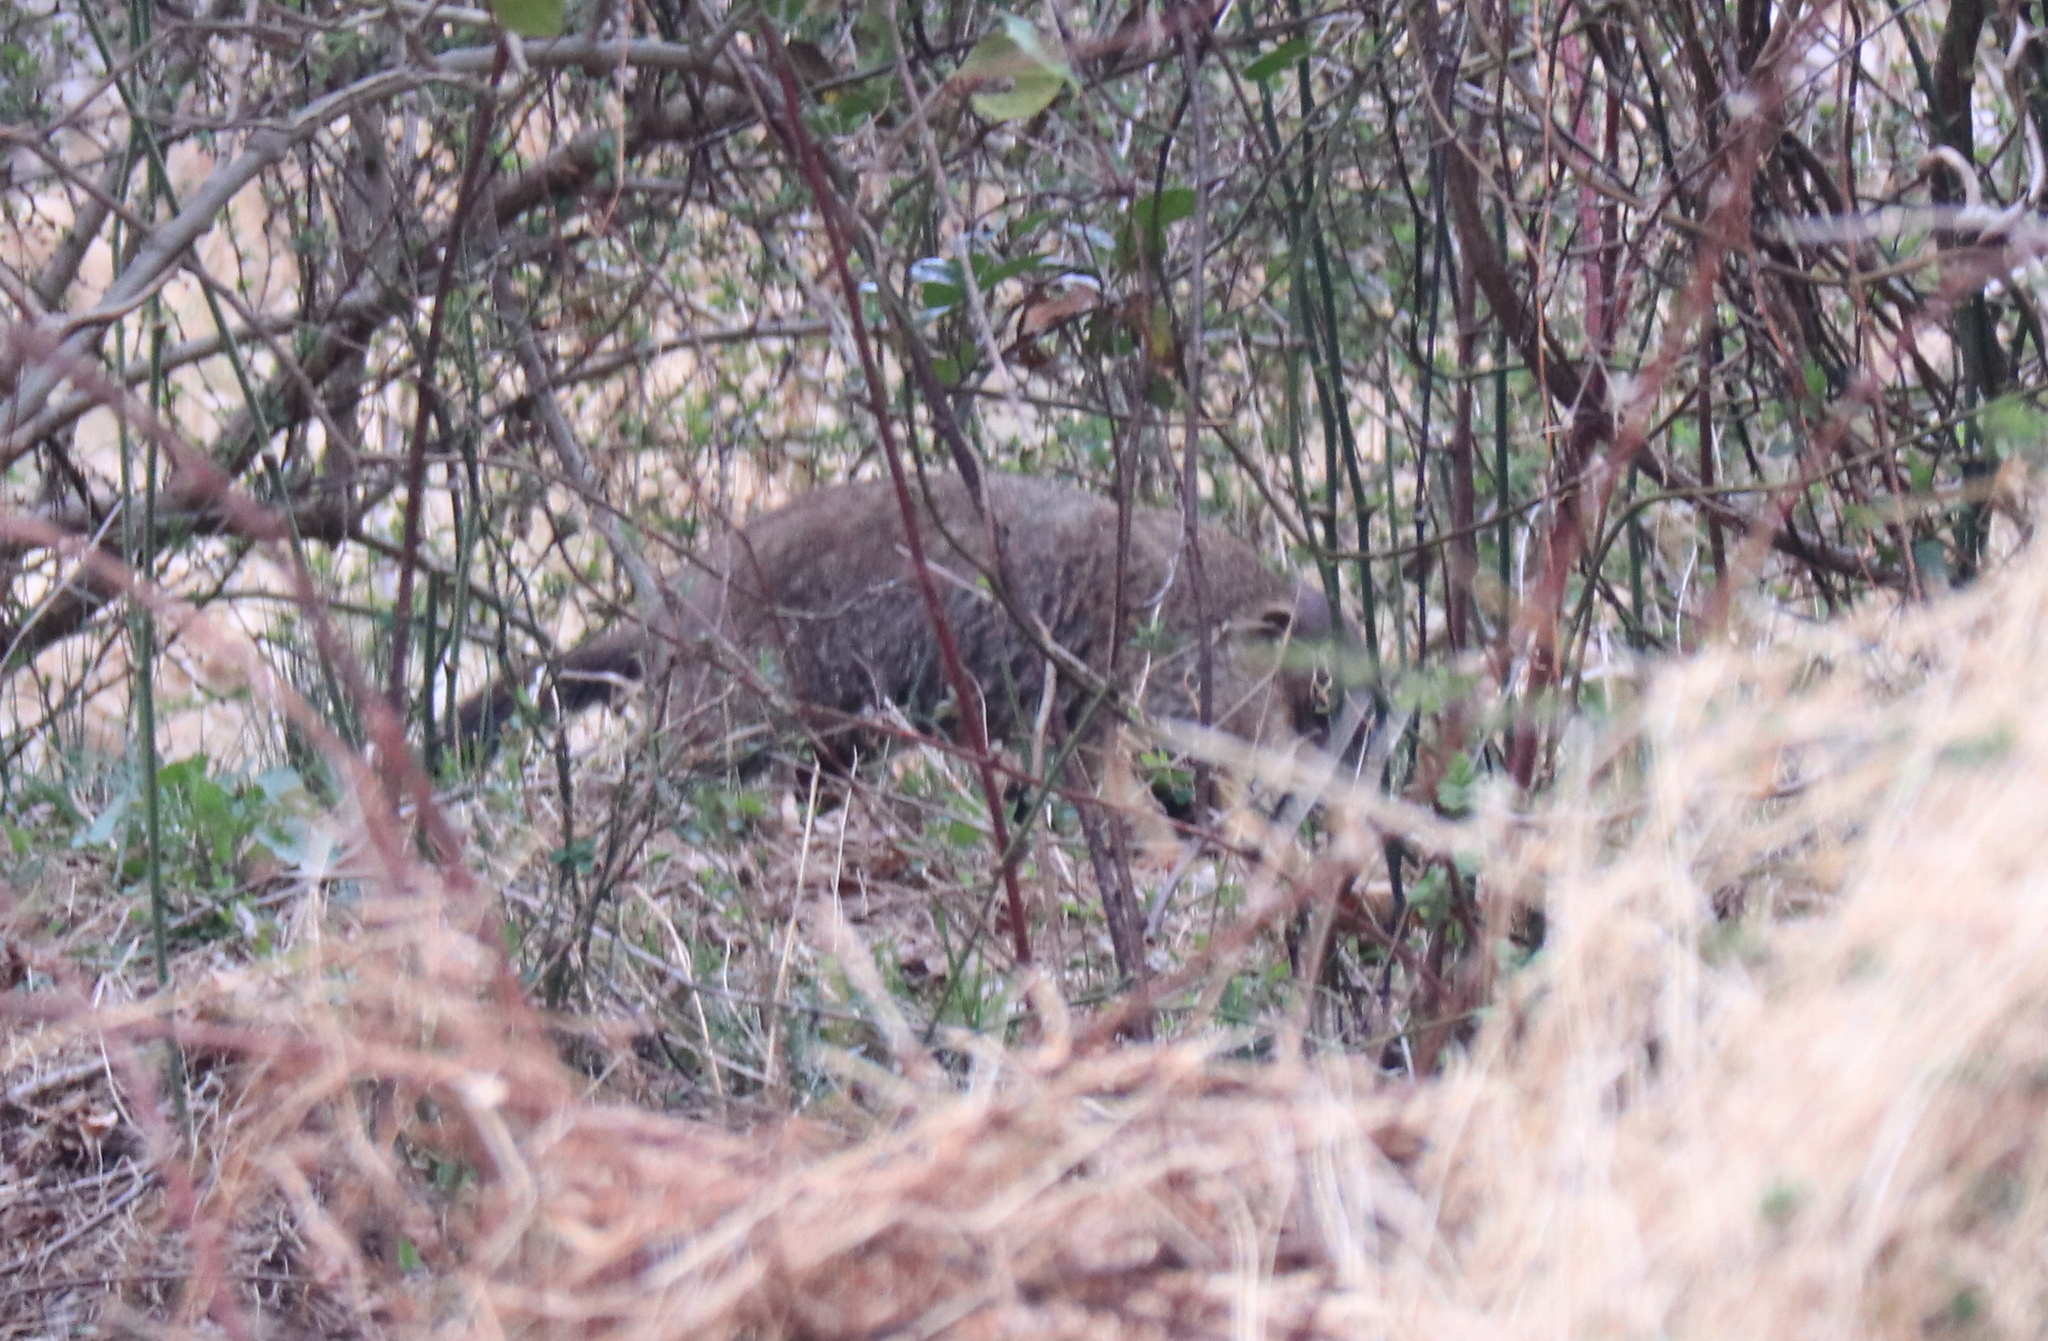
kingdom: Animalia
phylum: Chordata
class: Mammalia
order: Rodentia
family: Sciuridae
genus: Marmota
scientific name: Marmota monax
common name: Groundhog
